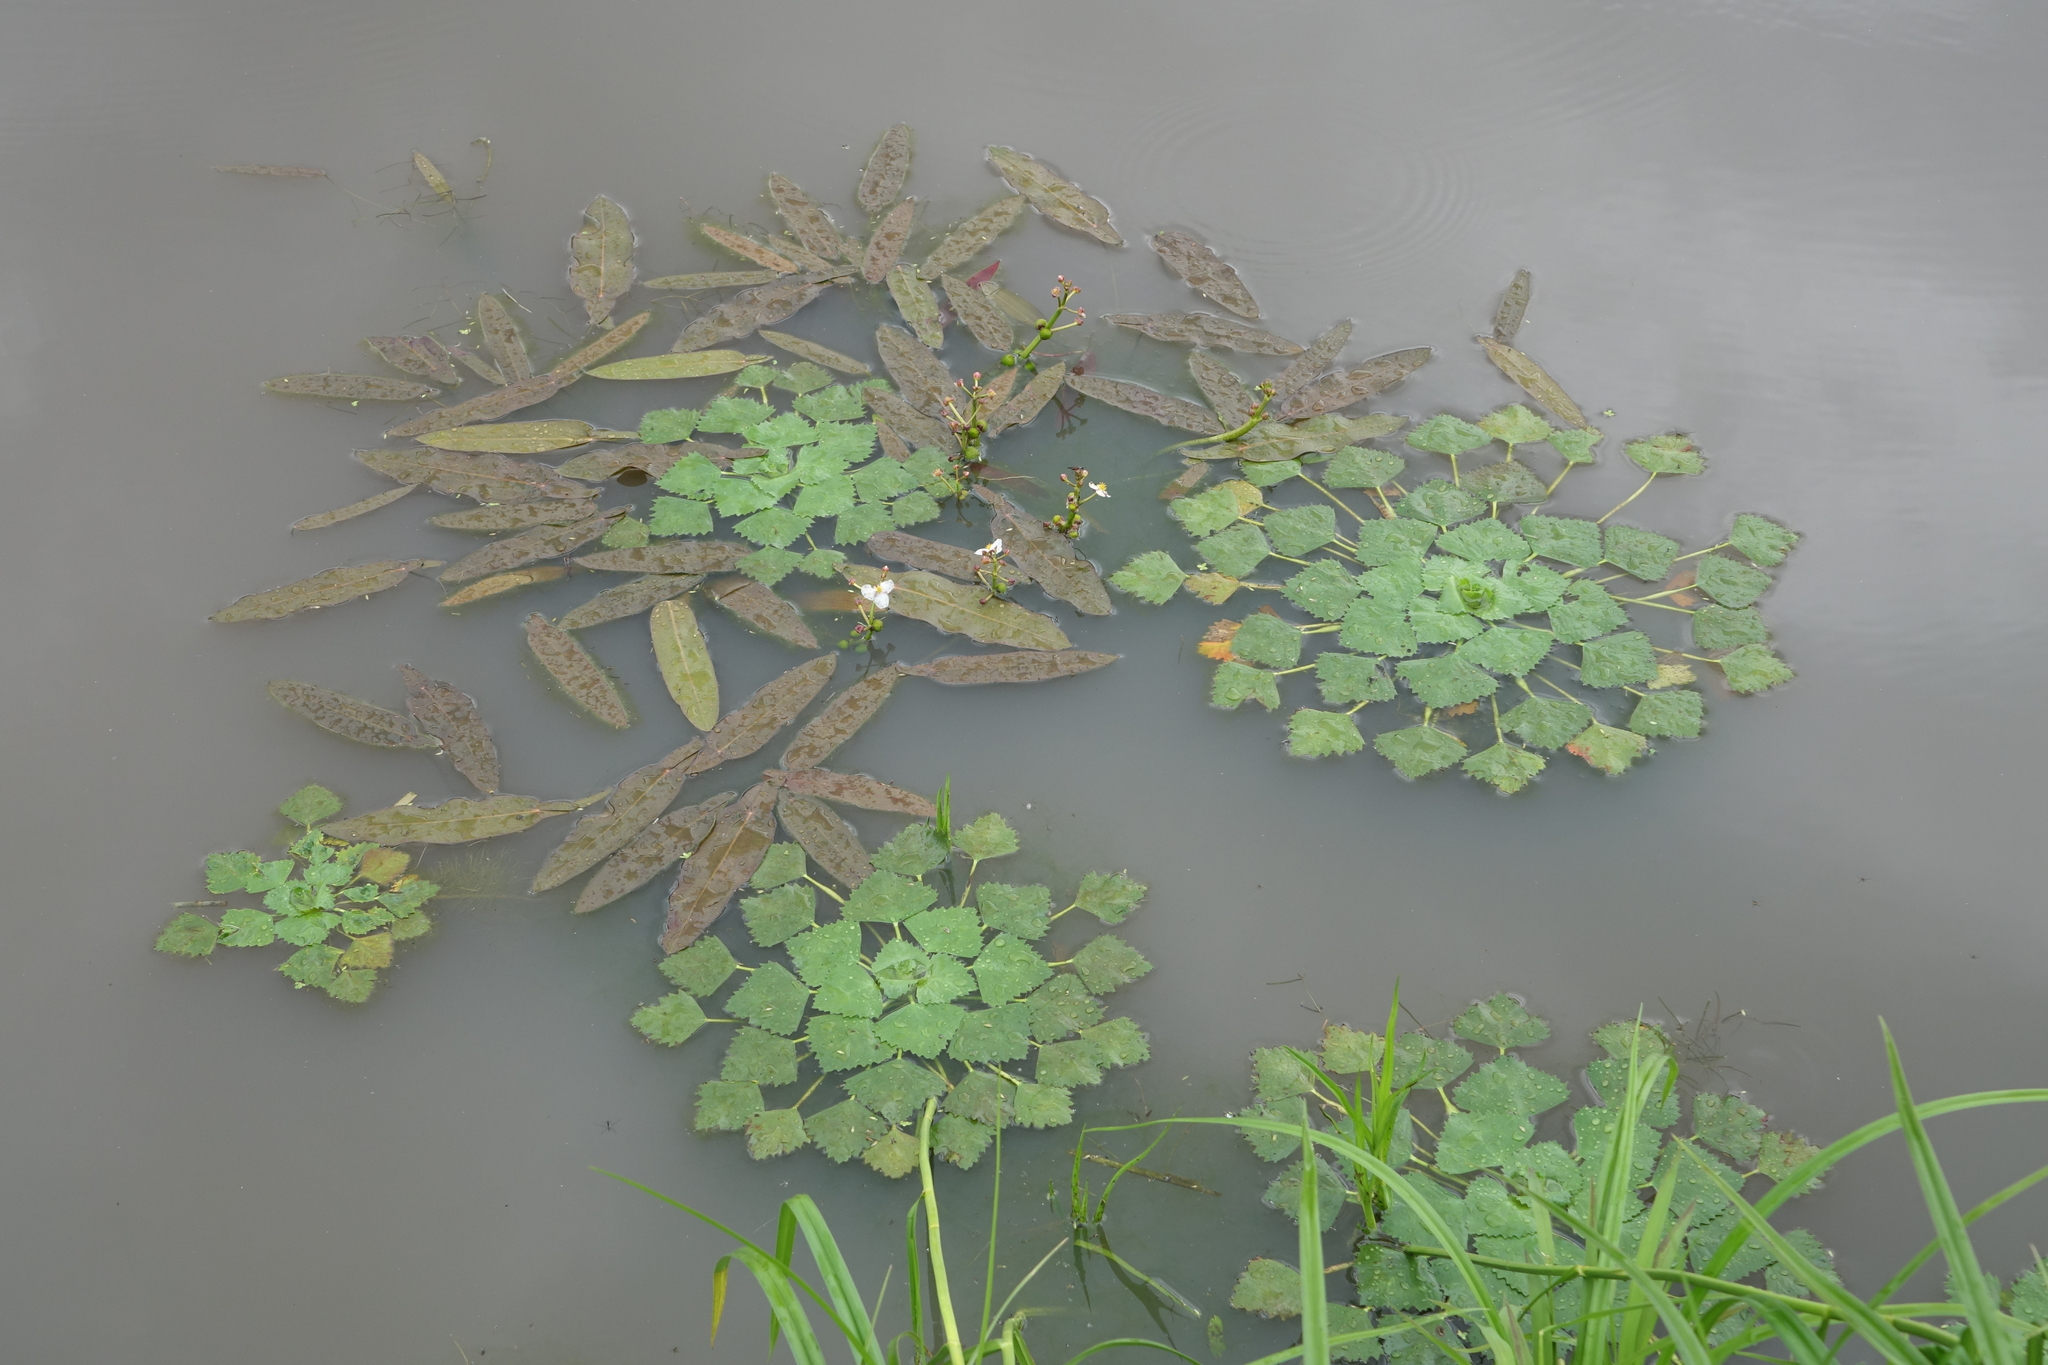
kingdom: Plantae
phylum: Tracheophyta
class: Liliopsida
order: Alismatales
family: Alismataceae
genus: Sagittaria
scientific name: Sagittaria natans
